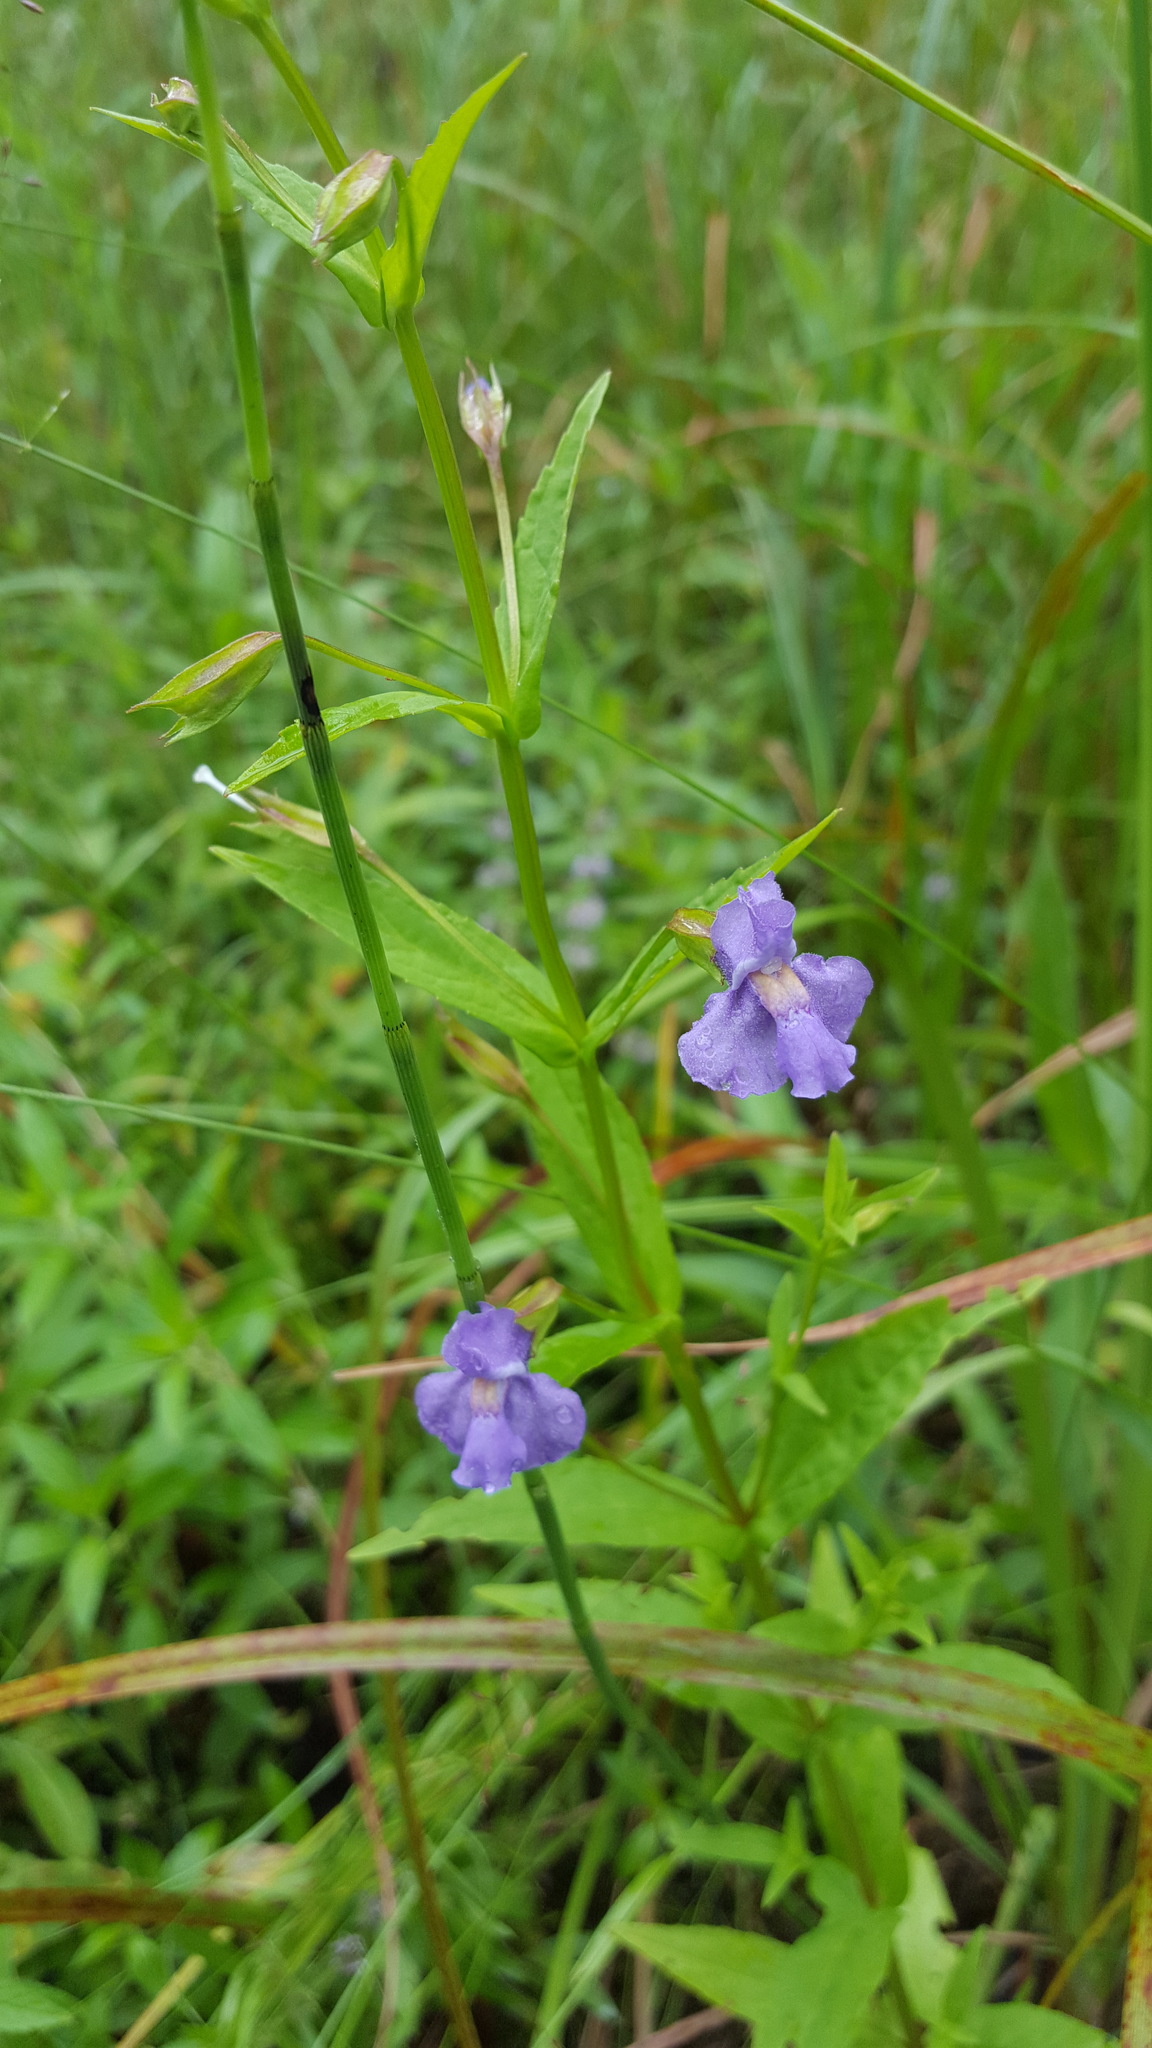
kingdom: Plantae
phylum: Tracheophyta
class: Magnoliopsida
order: Lamiales
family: Phrymaceae
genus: Mimulus
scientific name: Mimulus ringens
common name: Allegheny monkeyflower
